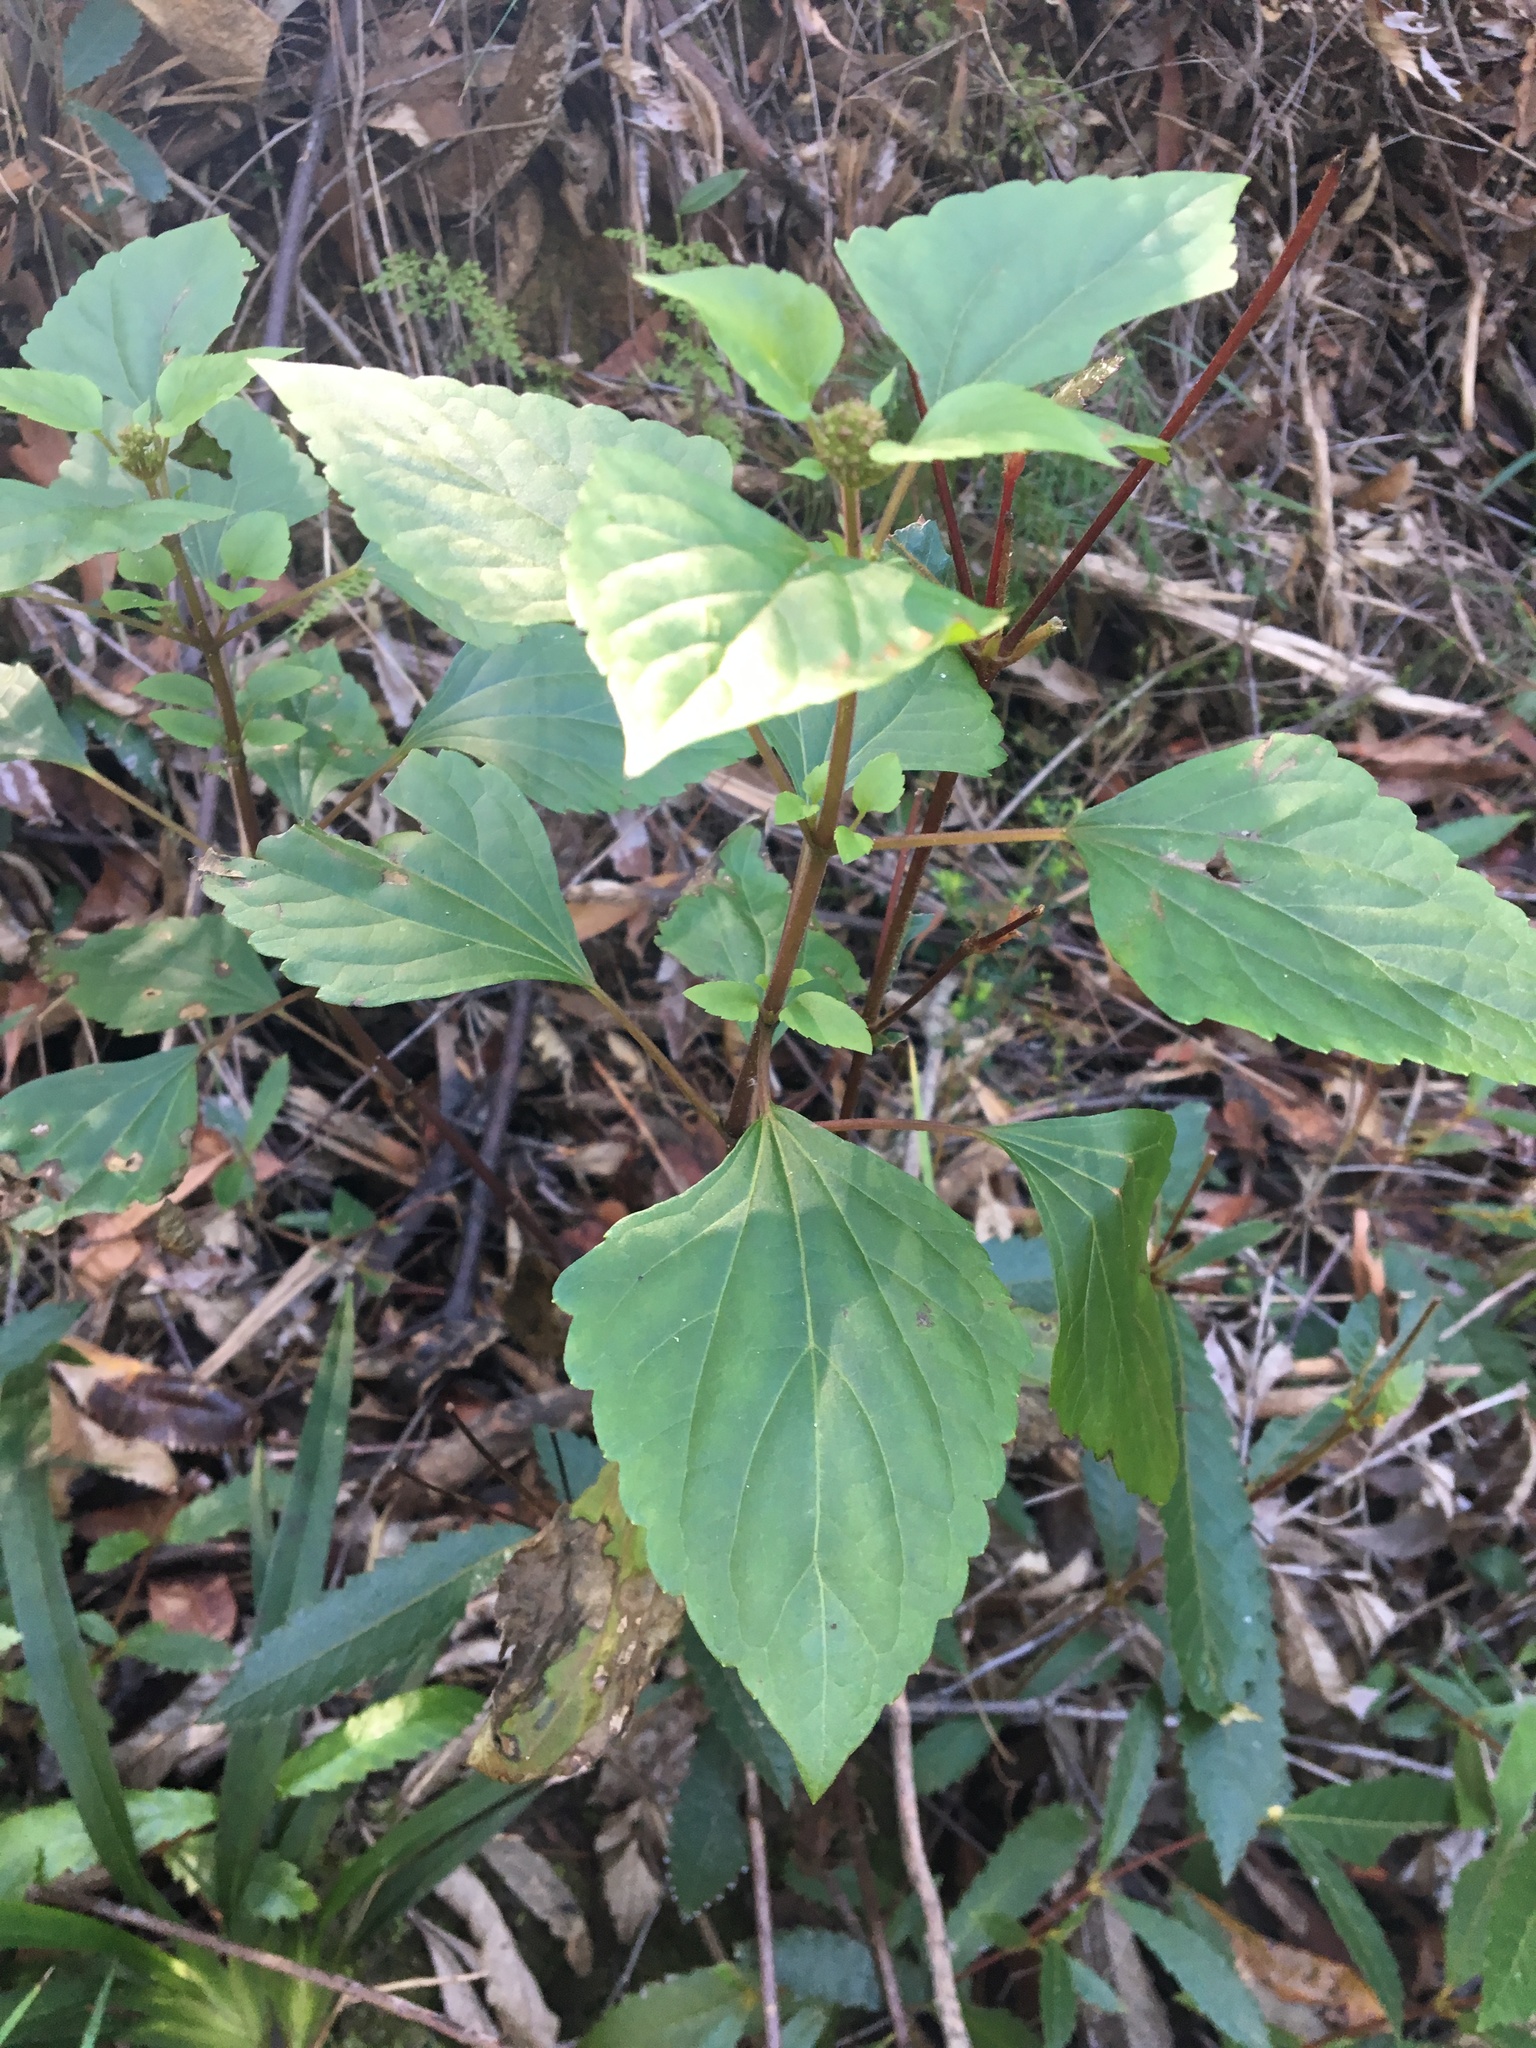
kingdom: Plantae
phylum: Tracheophyta
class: Magnoliopsida
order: Asterales
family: Asteraceae
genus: Ageratina
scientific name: Ageratina adenophora
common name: Sticky snakeroot
